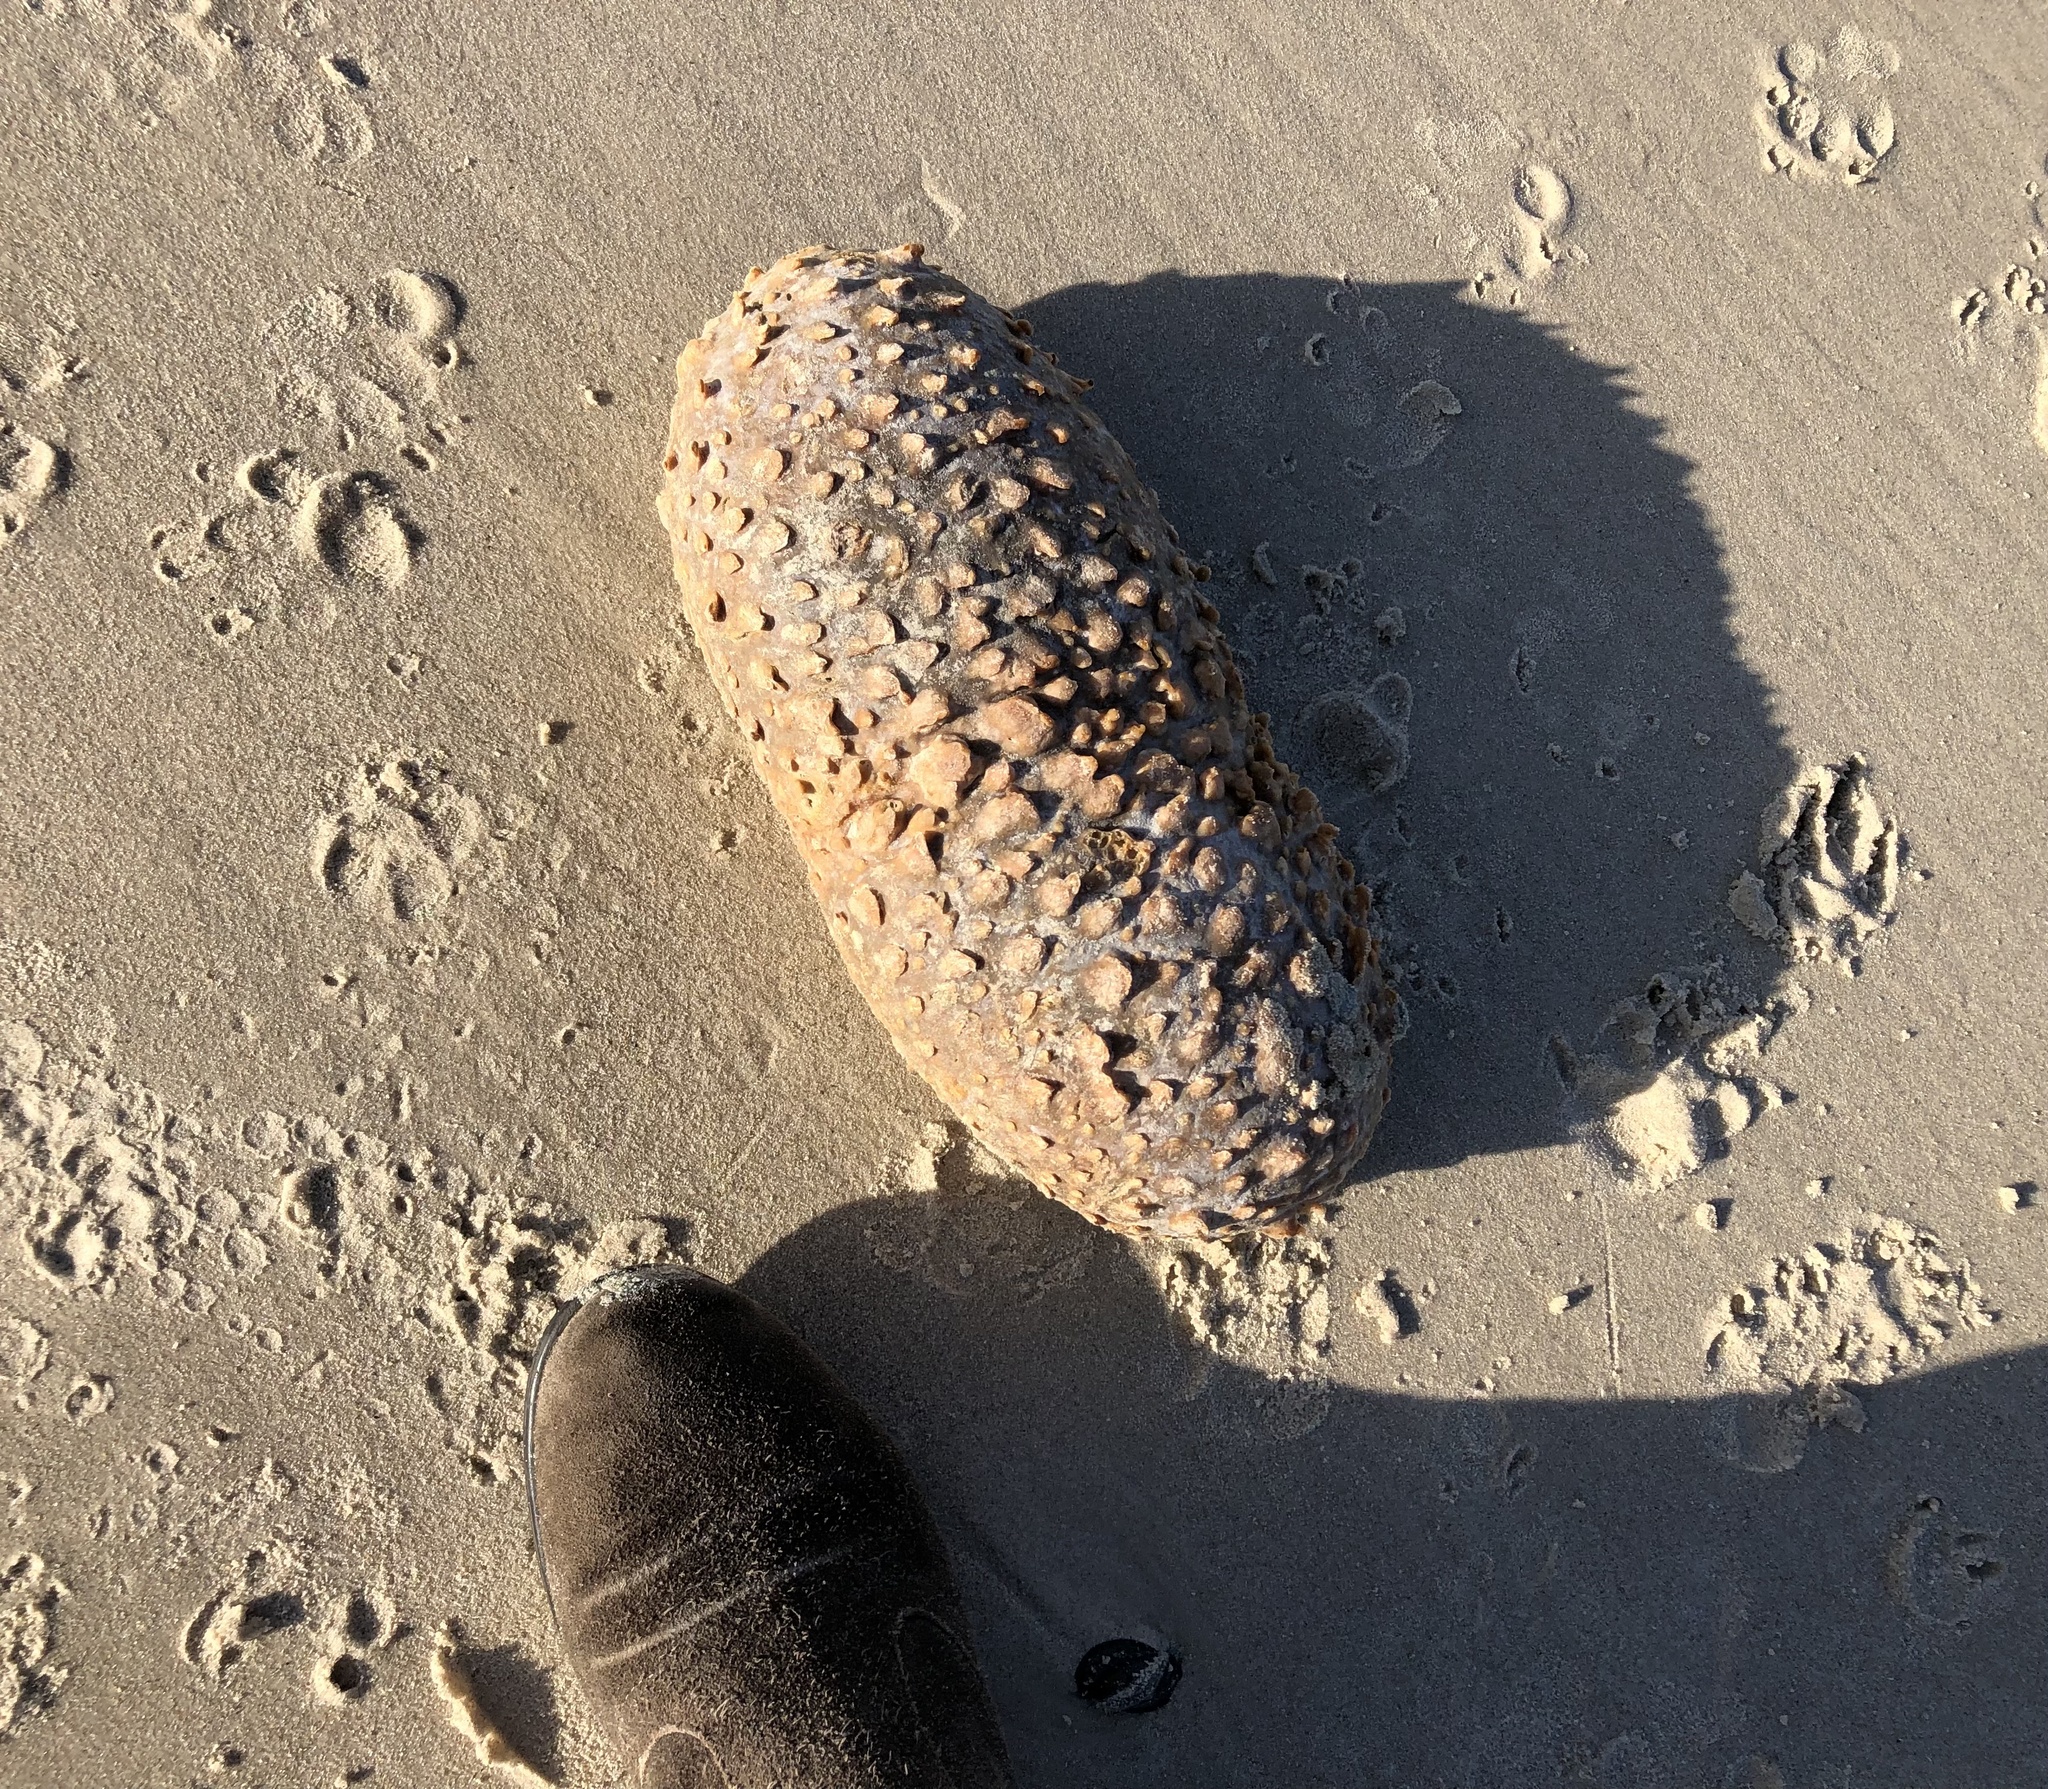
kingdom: Animalia
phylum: Chordata
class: Ascidiacea
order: Stolidobranchia
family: Pyuridae
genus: Pyura
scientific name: Pyura stolonifera
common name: Red bait
